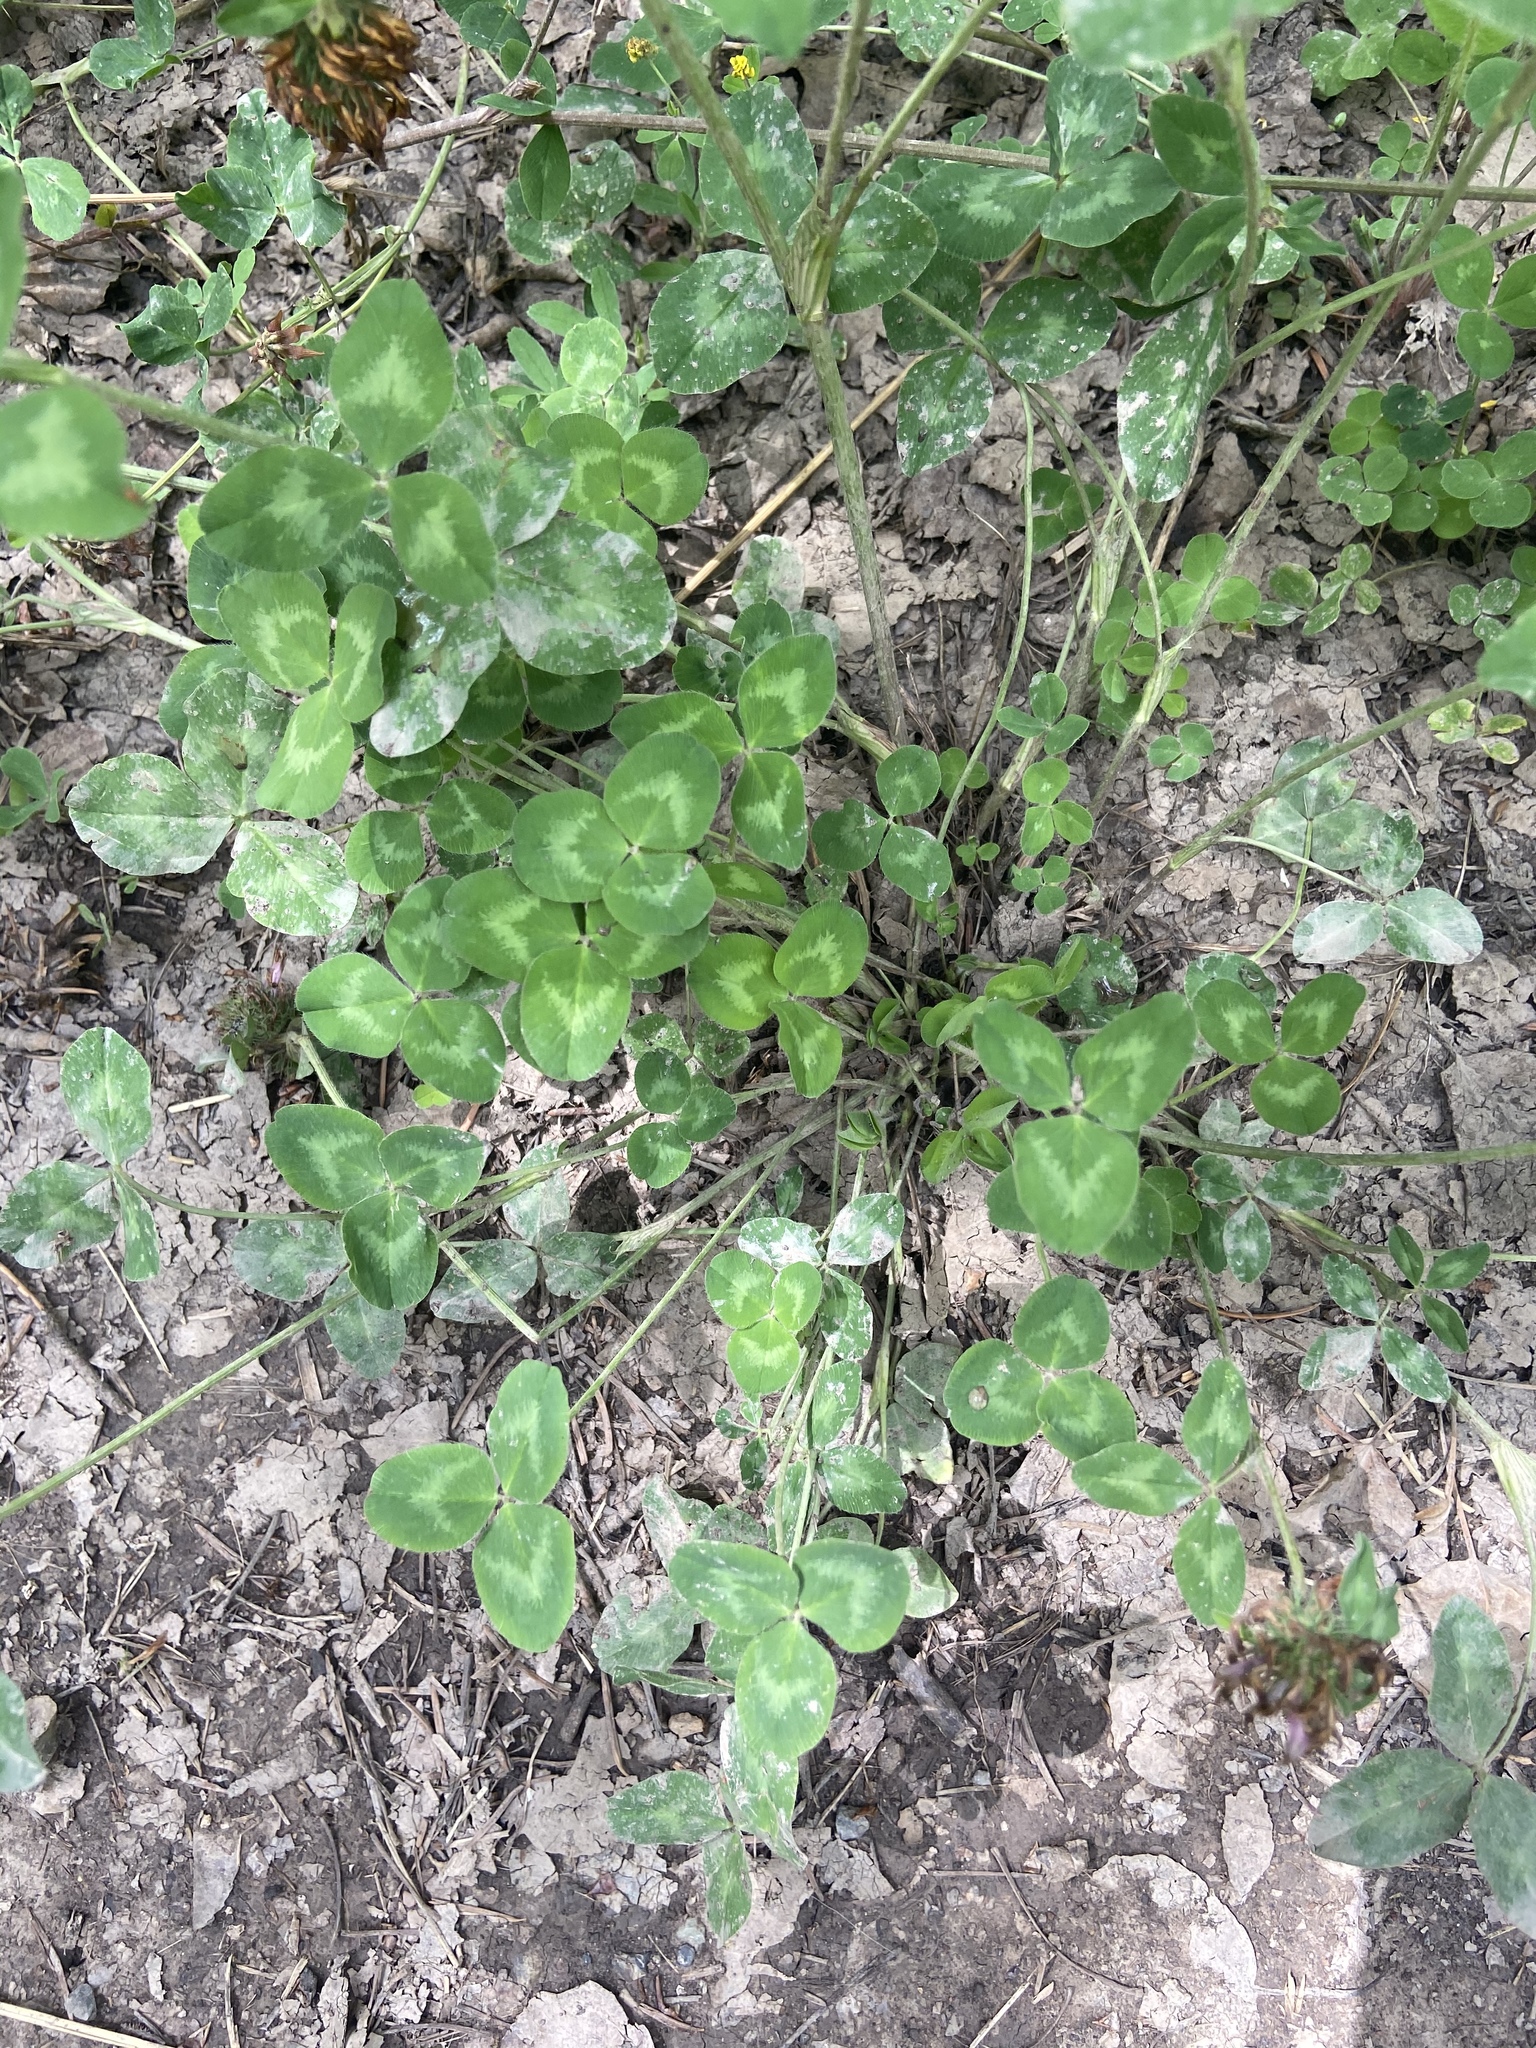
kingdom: Plantae
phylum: Tracheophyta
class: Magnoliopsida
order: Fabales
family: Fabaceae
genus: Trifolium
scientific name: Trifolium pratense
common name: Red clover
